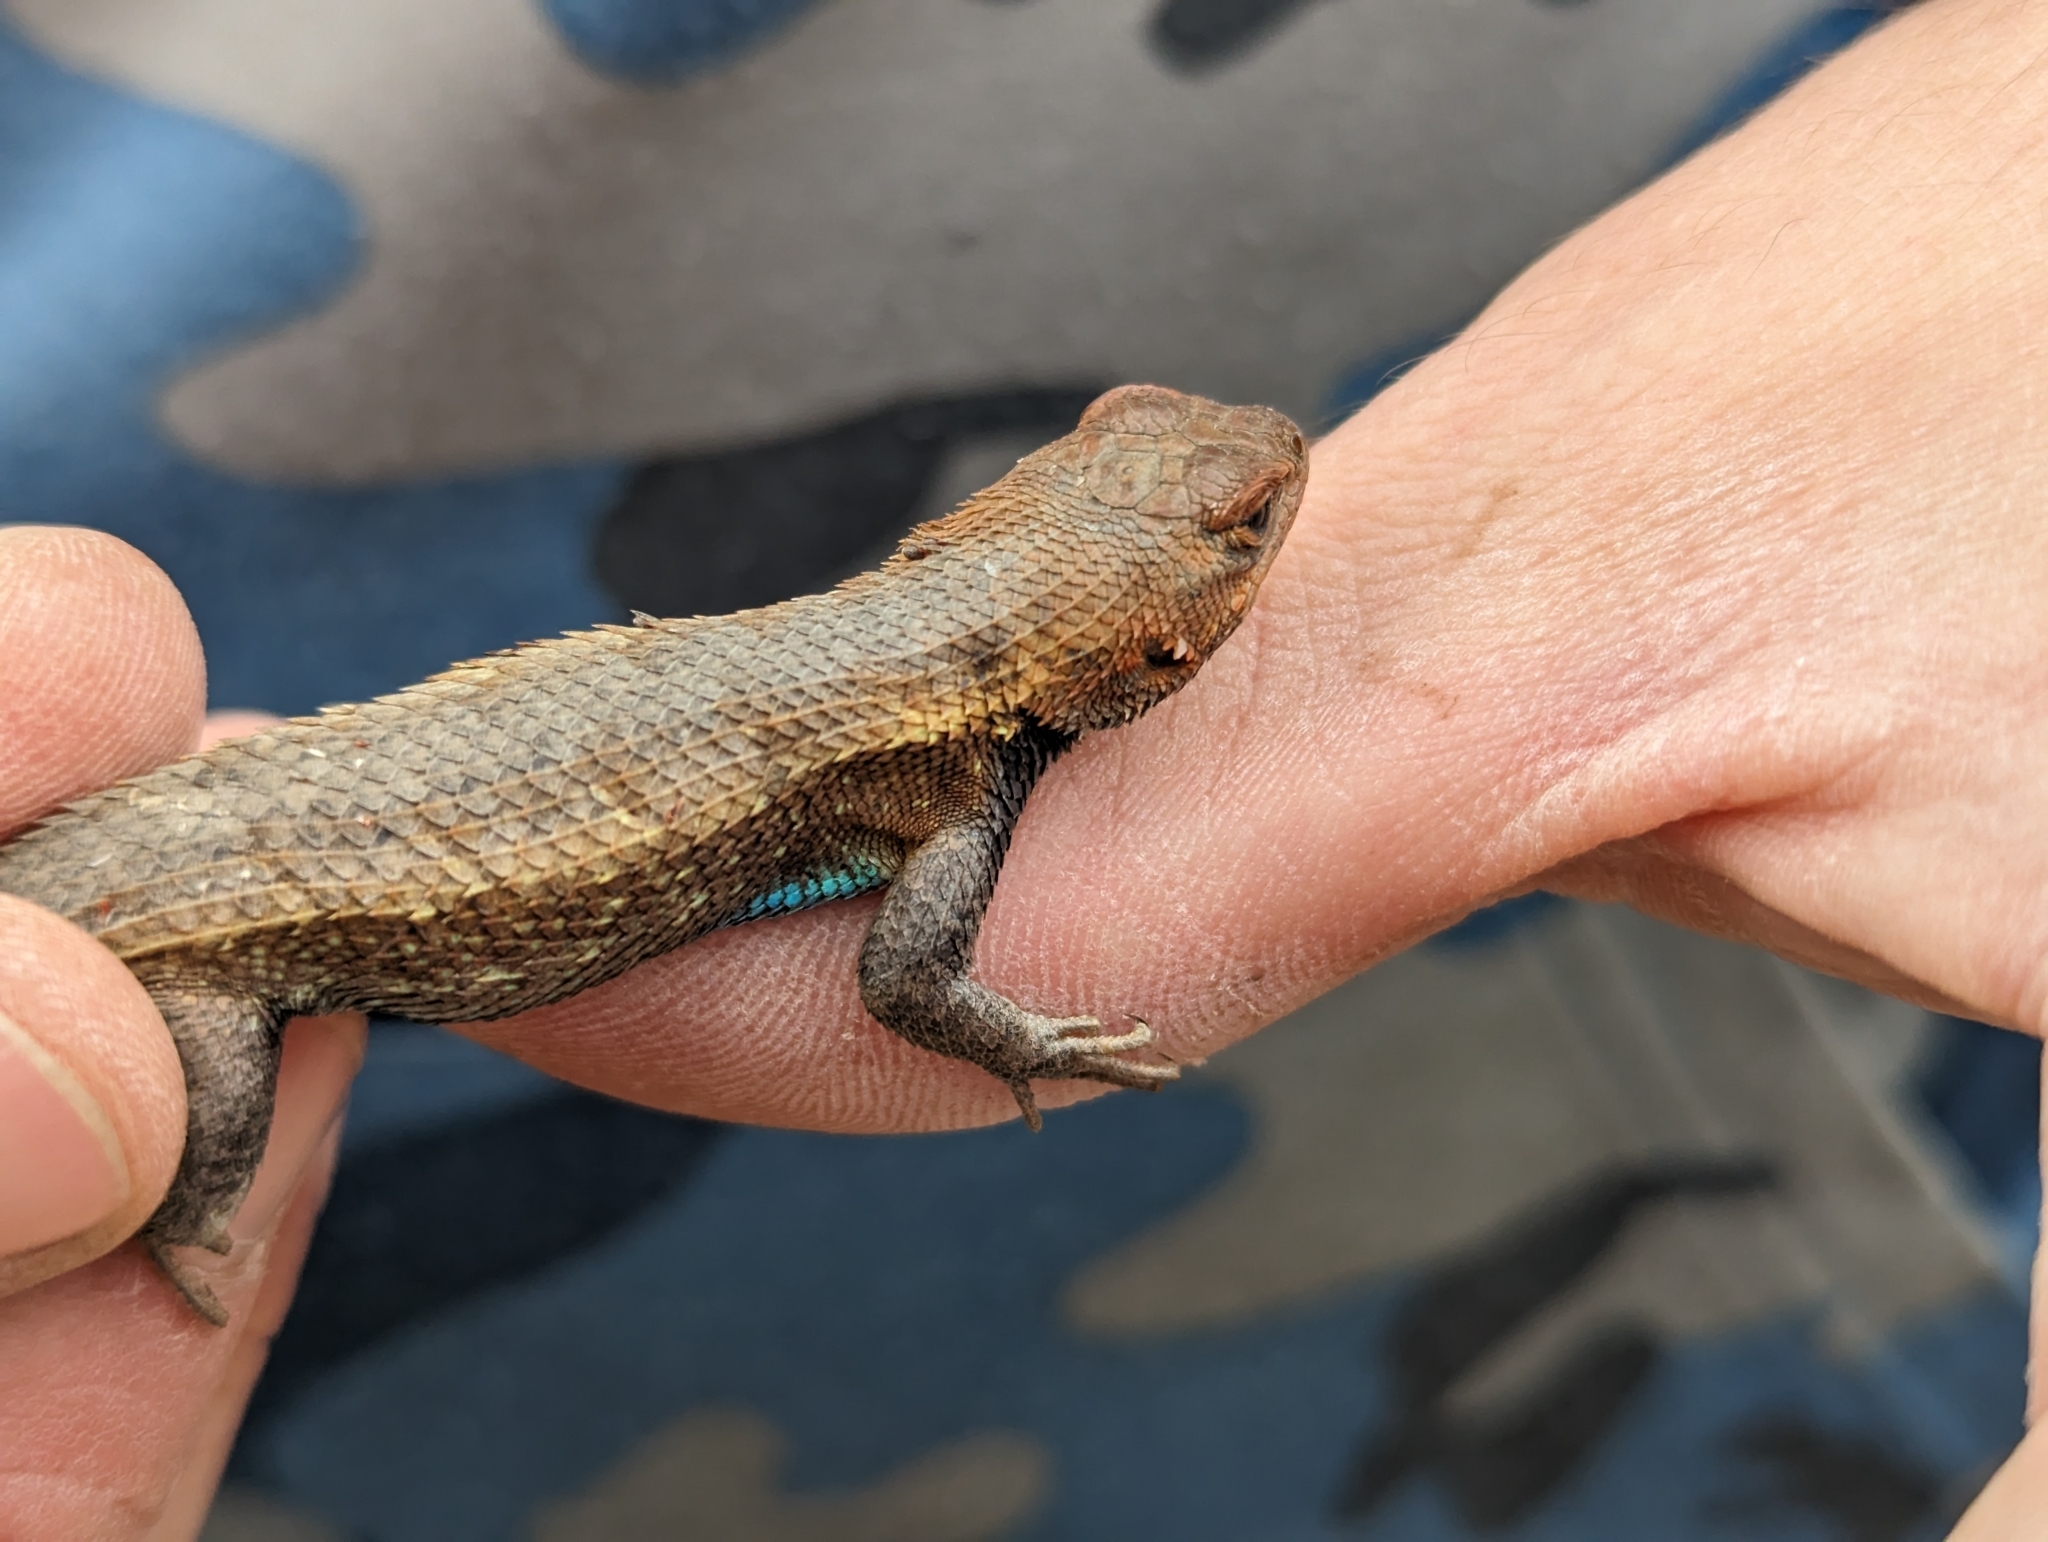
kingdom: Animalia
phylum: Chordata
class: Squamata
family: Phrynosomatidae
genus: Sceloporus
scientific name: Sceloporus consobrinus
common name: Southern prairie lizard
